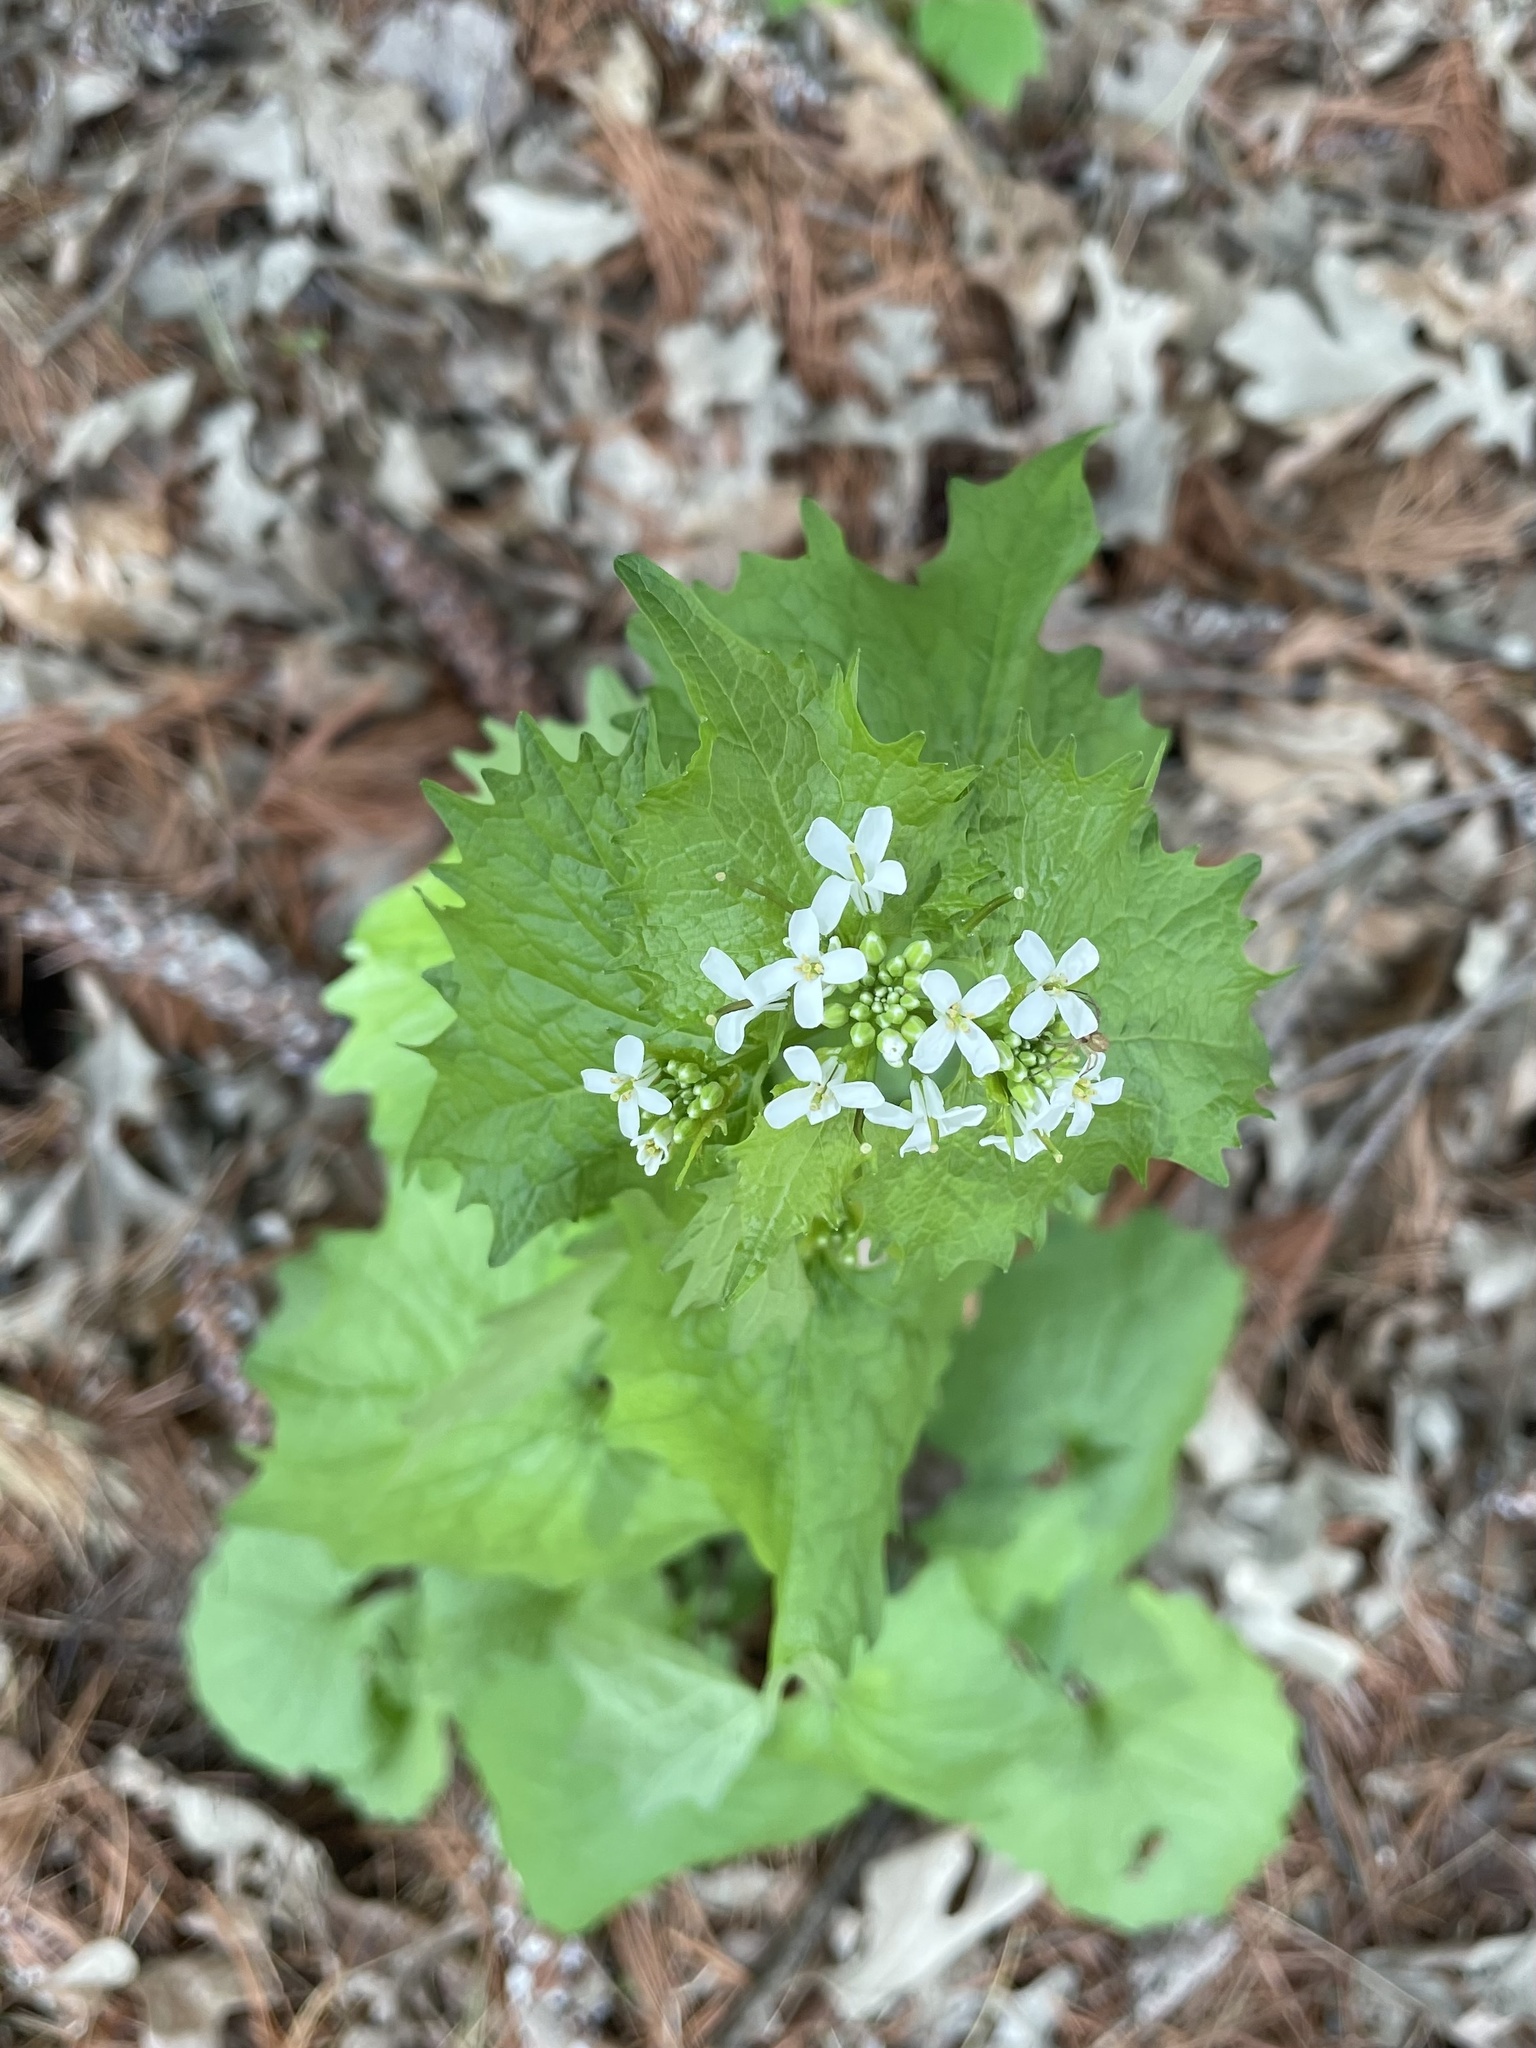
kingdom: Plantae
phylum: Tracheophyta
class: Magnoliopsida
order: Brassicales
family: Brassicaceae
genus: Alliaria
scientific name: Alliaria petiolata
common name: Garlic mustard
